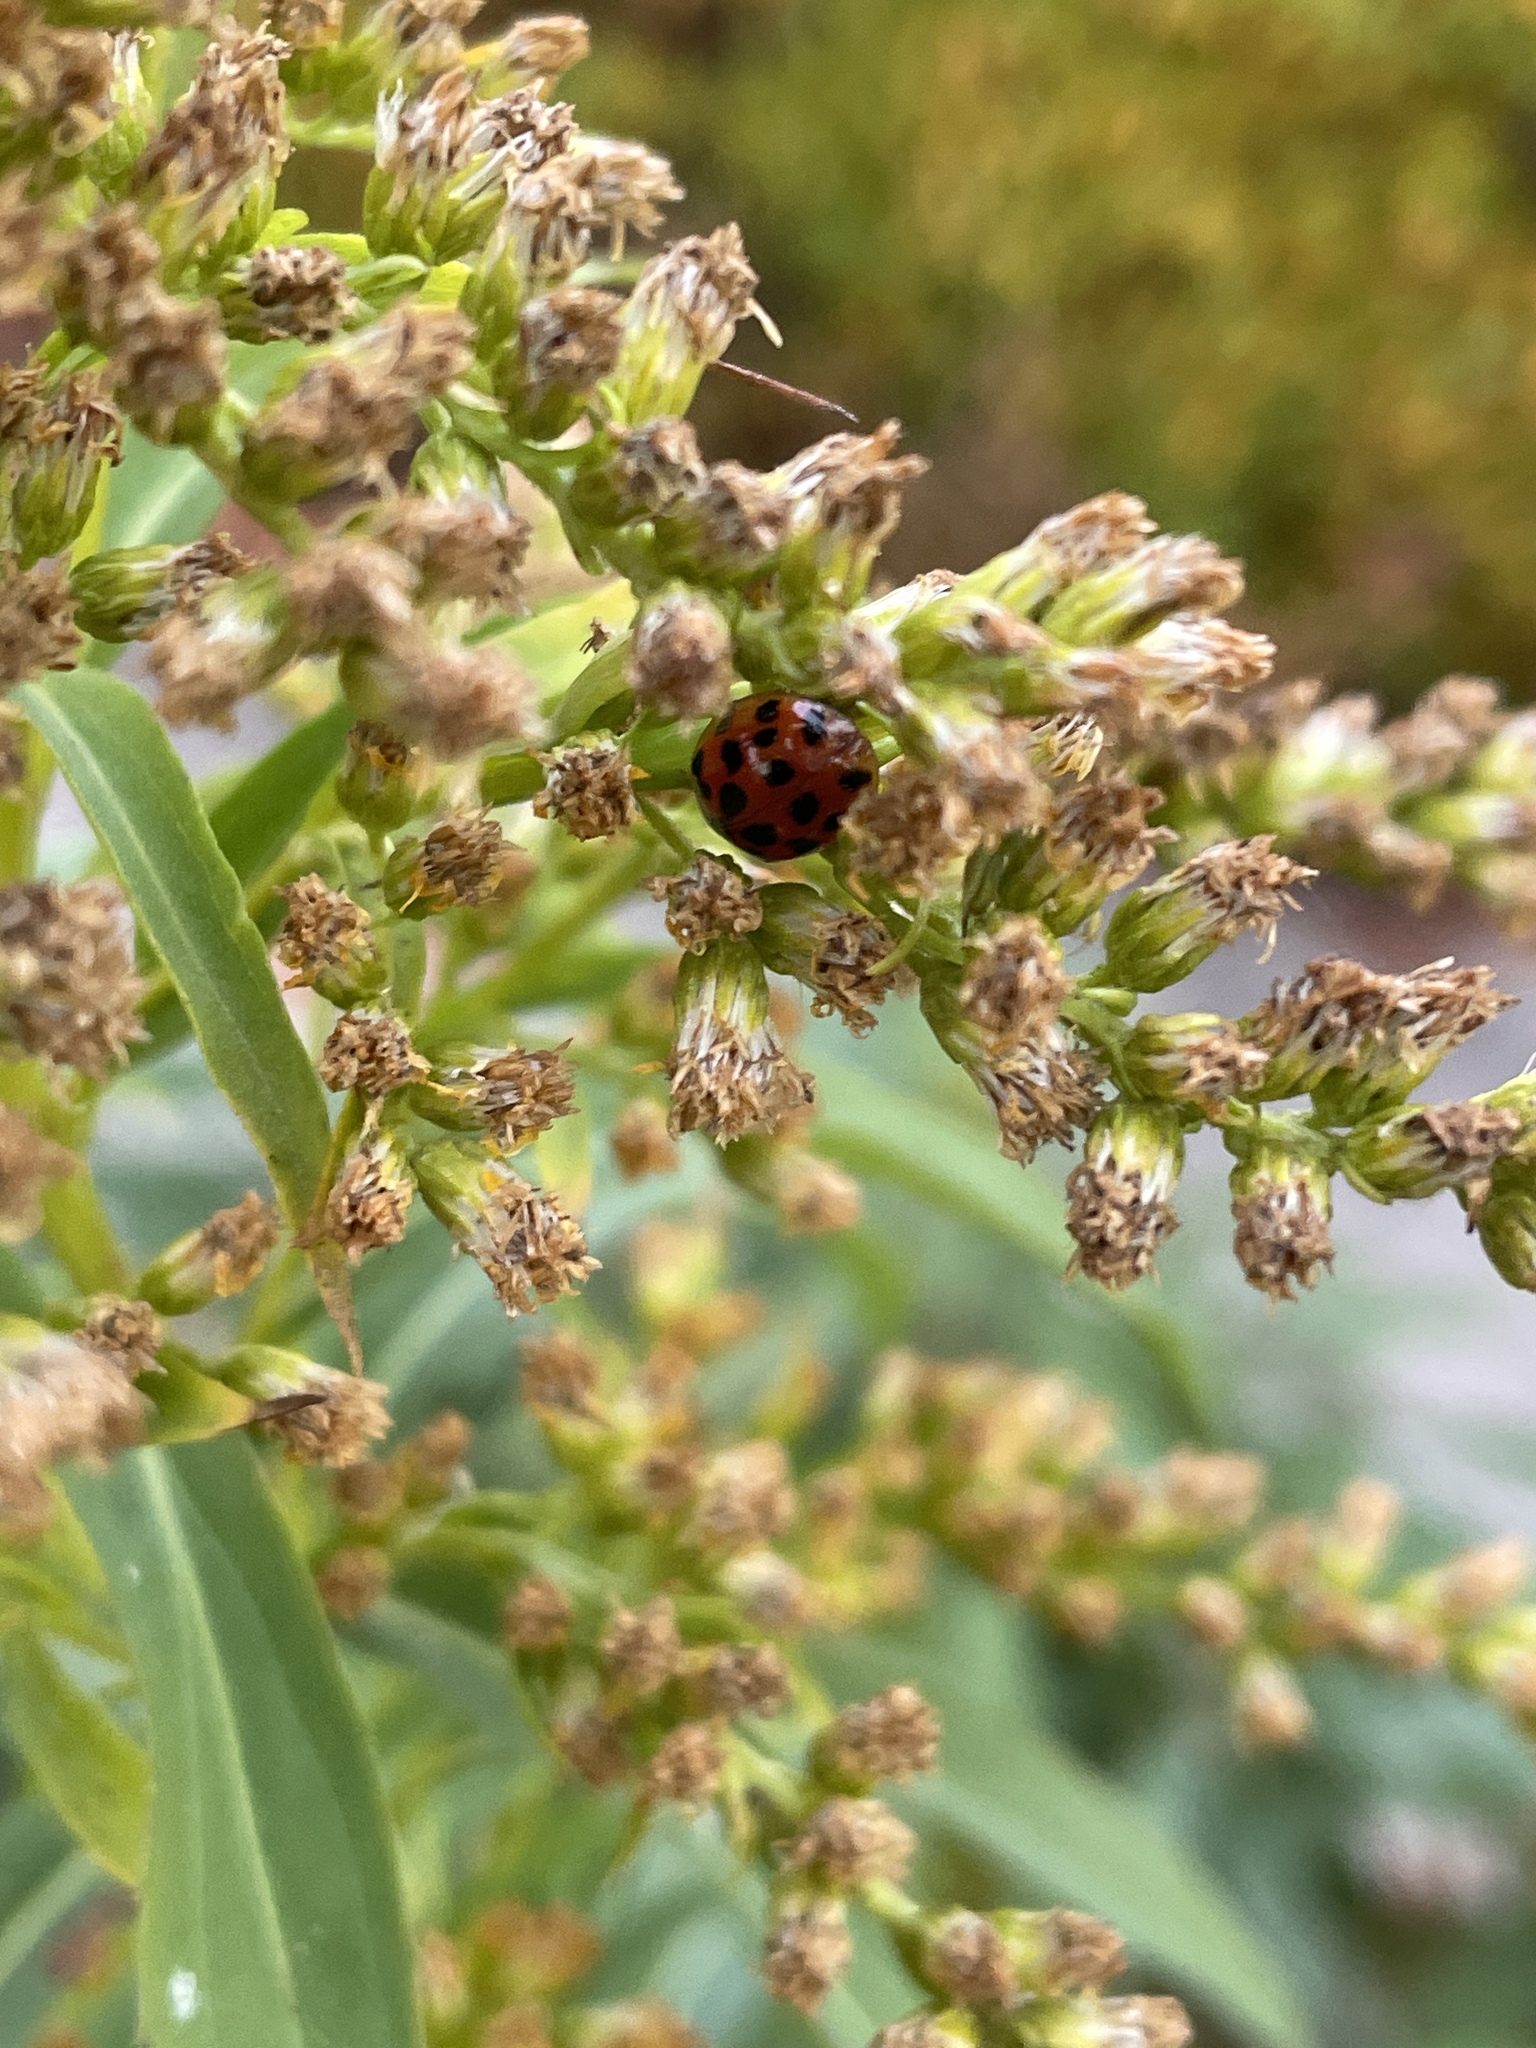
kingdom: Animalia
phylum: Arthropoda
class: Insecta
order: Coleoptera
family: Coccinellidae
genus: Harmonia
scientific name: Harmonia axyridis
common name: Harlequin ladybird
